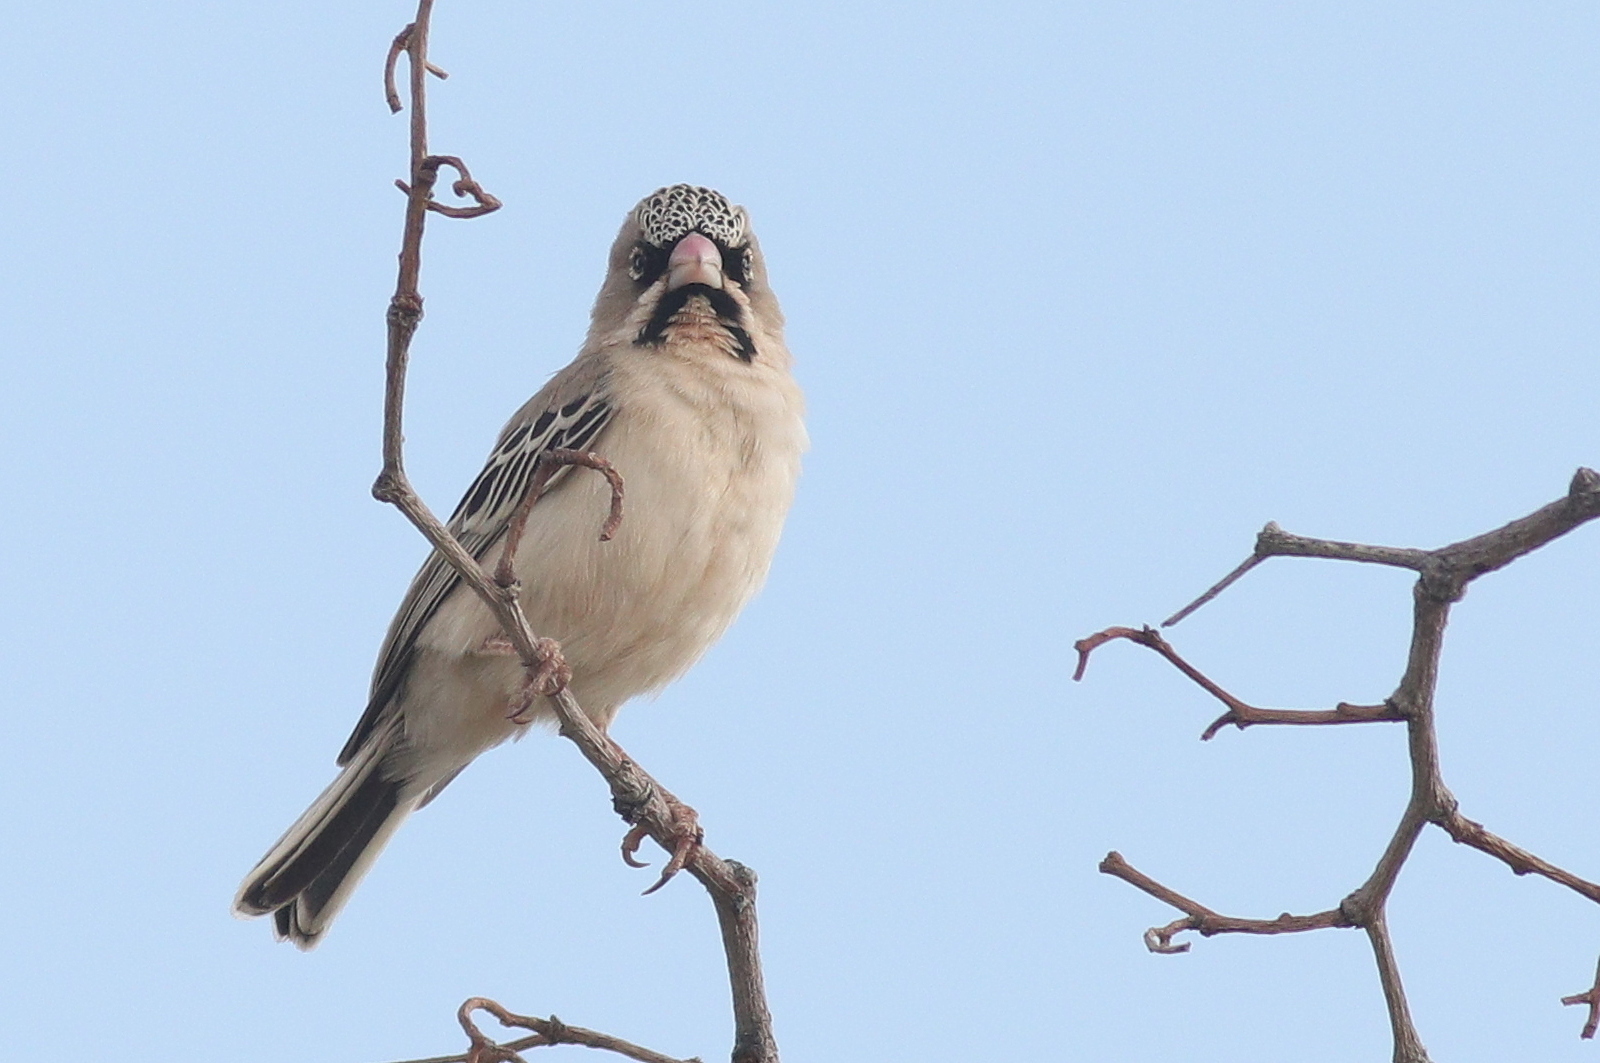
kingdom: Animalia
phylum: Chordata
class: Aves
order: Passeriformes
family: Ploceidae
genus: Sporopipes
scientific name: Sporopipes squamifrons
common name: Scaly-feathered weaver
